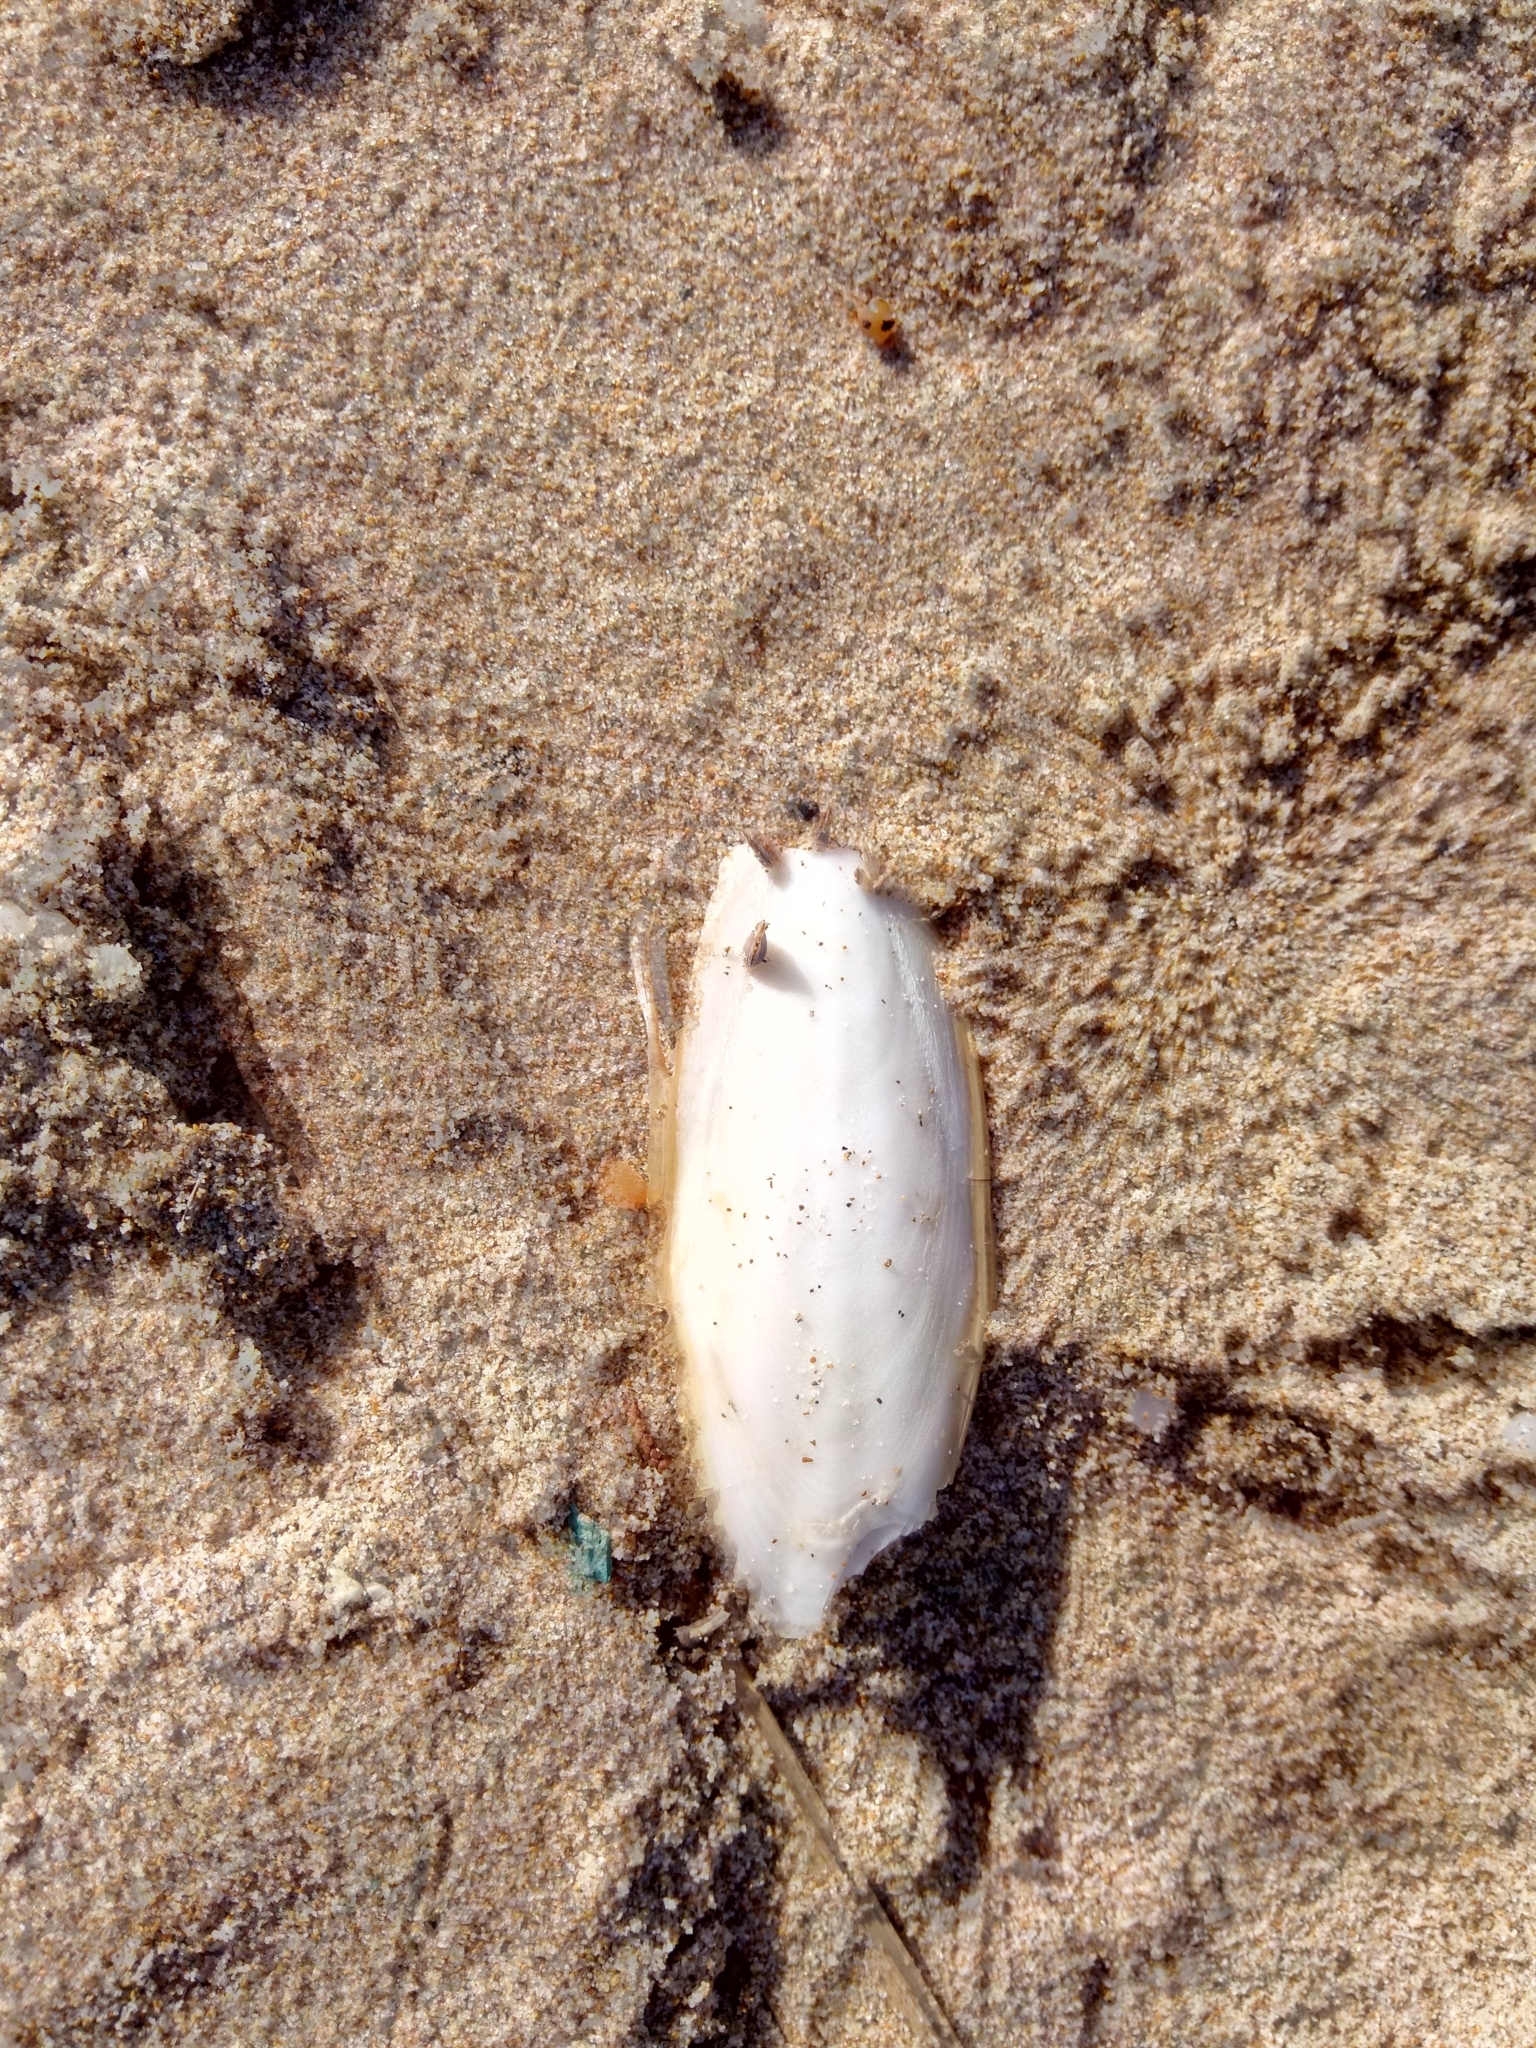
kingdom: Animalia
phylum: Mollusca
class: Cephalopoda
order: Sepiida
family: Sepiidae
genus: Sepia
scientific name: Sepia officinalis
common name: Common cuttlefish
